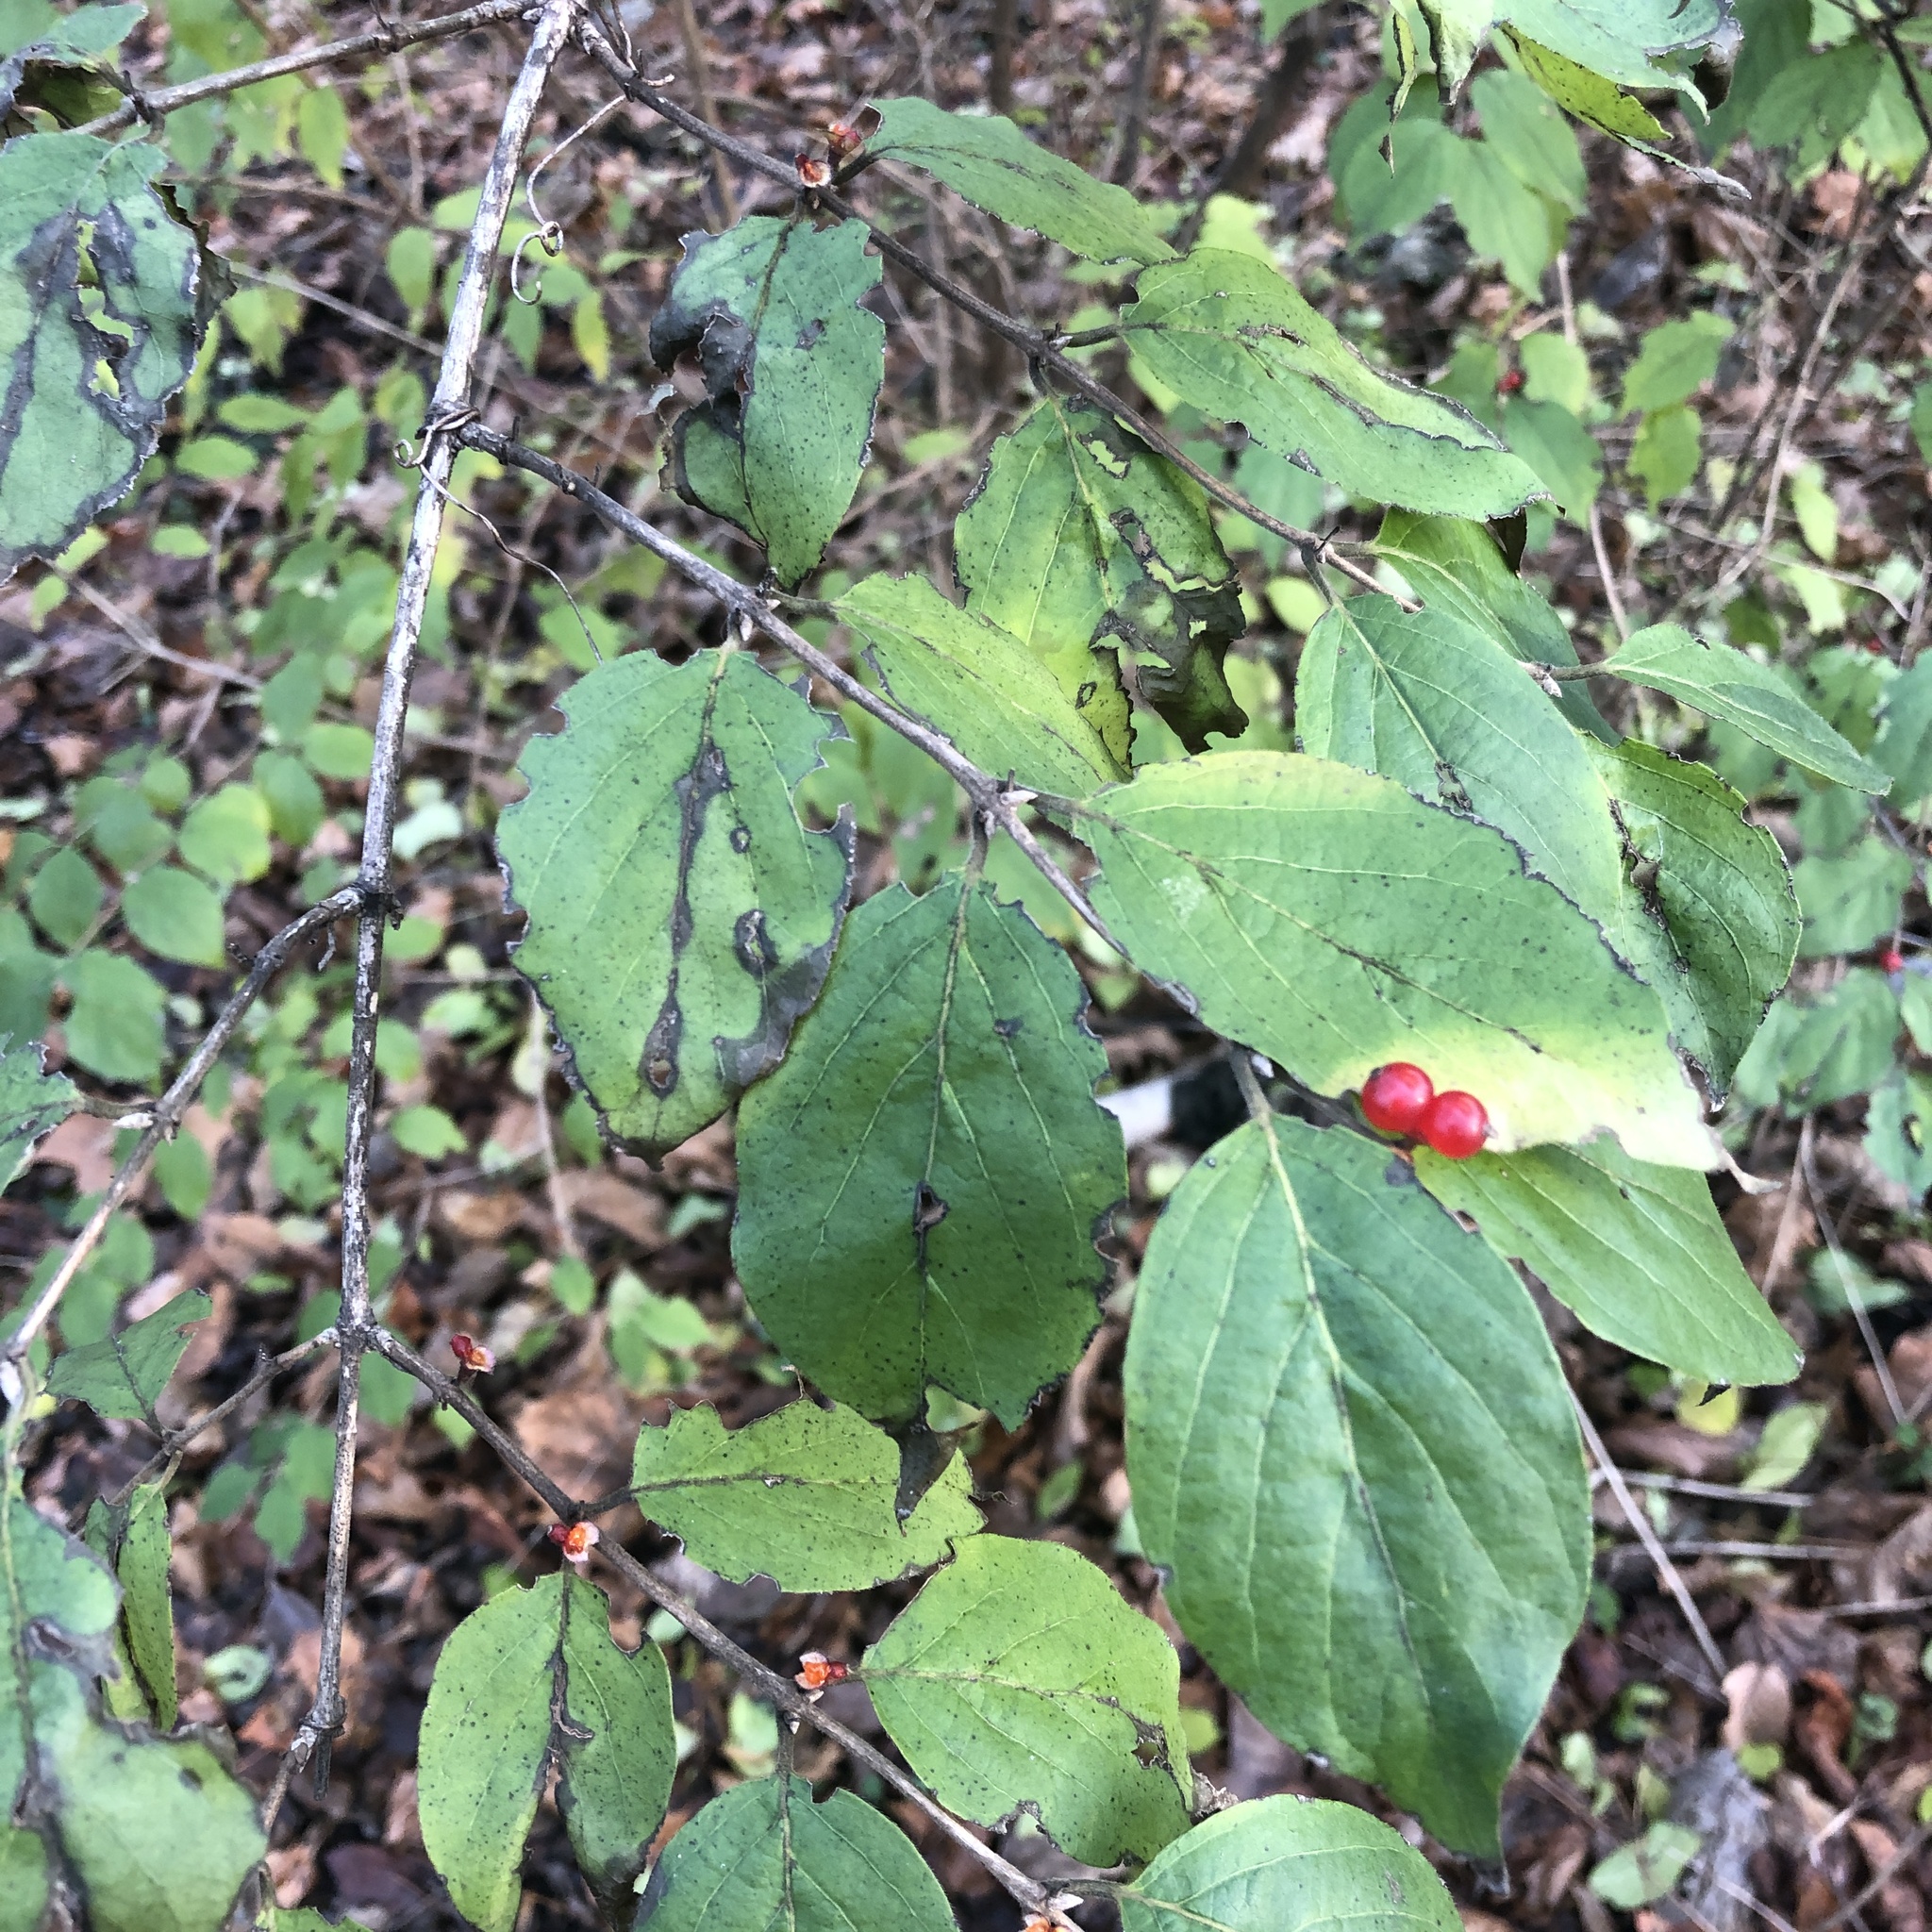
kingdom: Plantae
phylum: Tracheophyta
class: Magnoliopsida
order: Dipsacales
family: Caprifoliaceae
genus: Lonicera
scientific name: Lonicera maackii
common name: Amur honeysuckle
